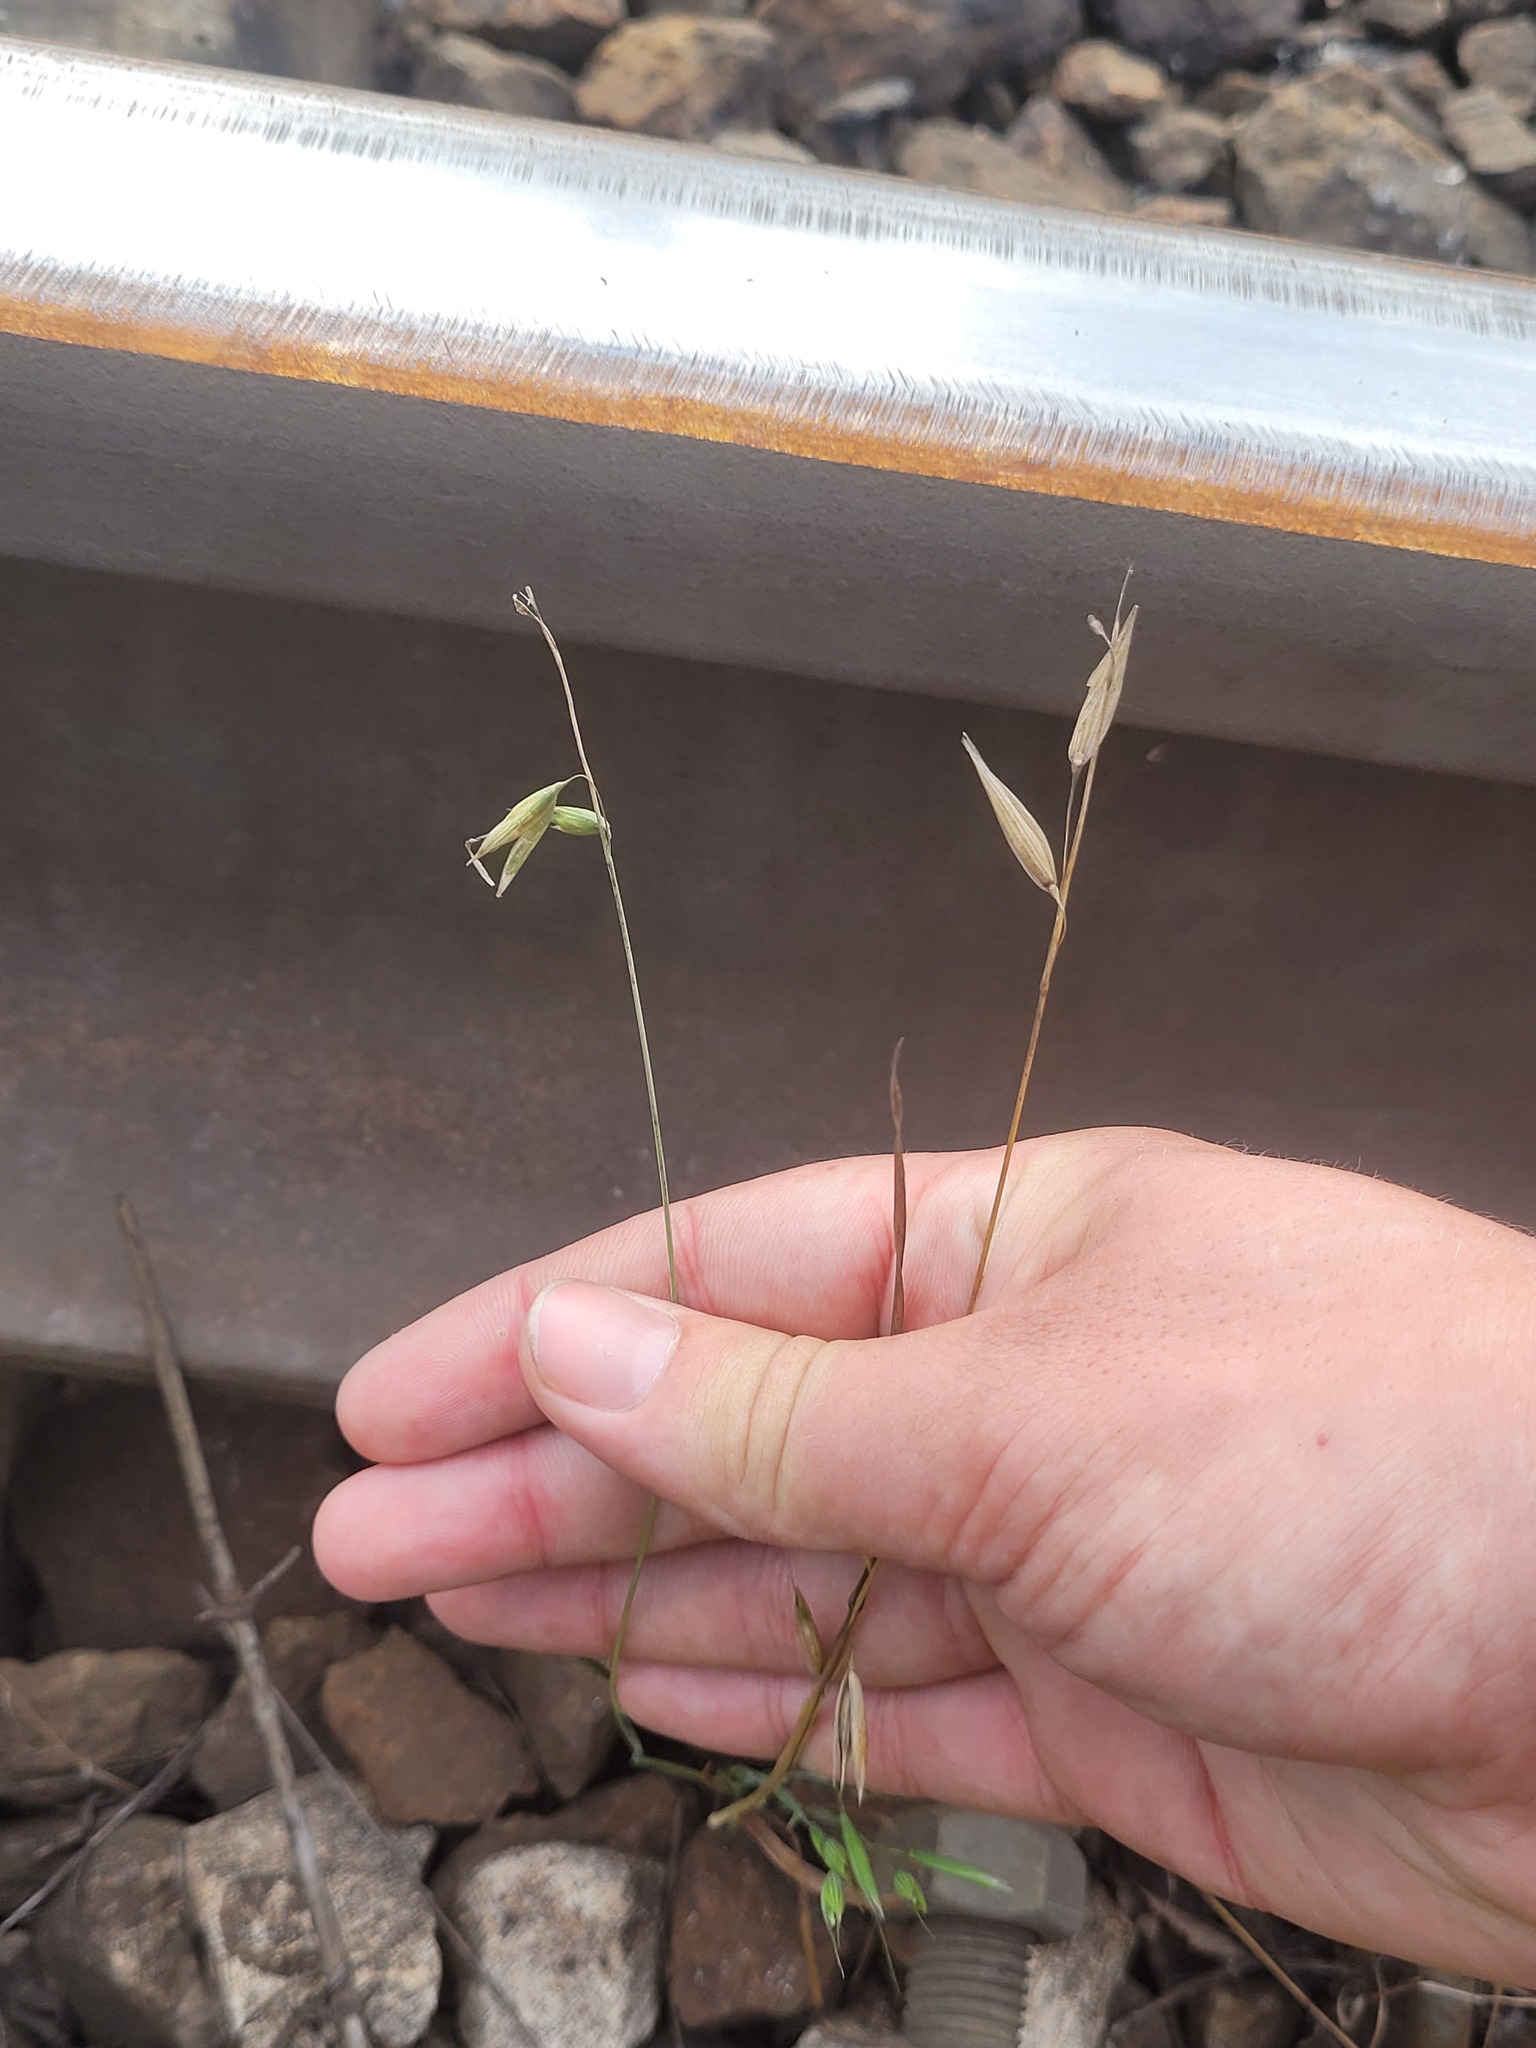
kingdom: Plantae
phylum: Tracheophyta
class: Liliopsida
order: Poales
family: Poaceae
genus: Avena
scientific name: Avena fatua
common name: Wild oat
